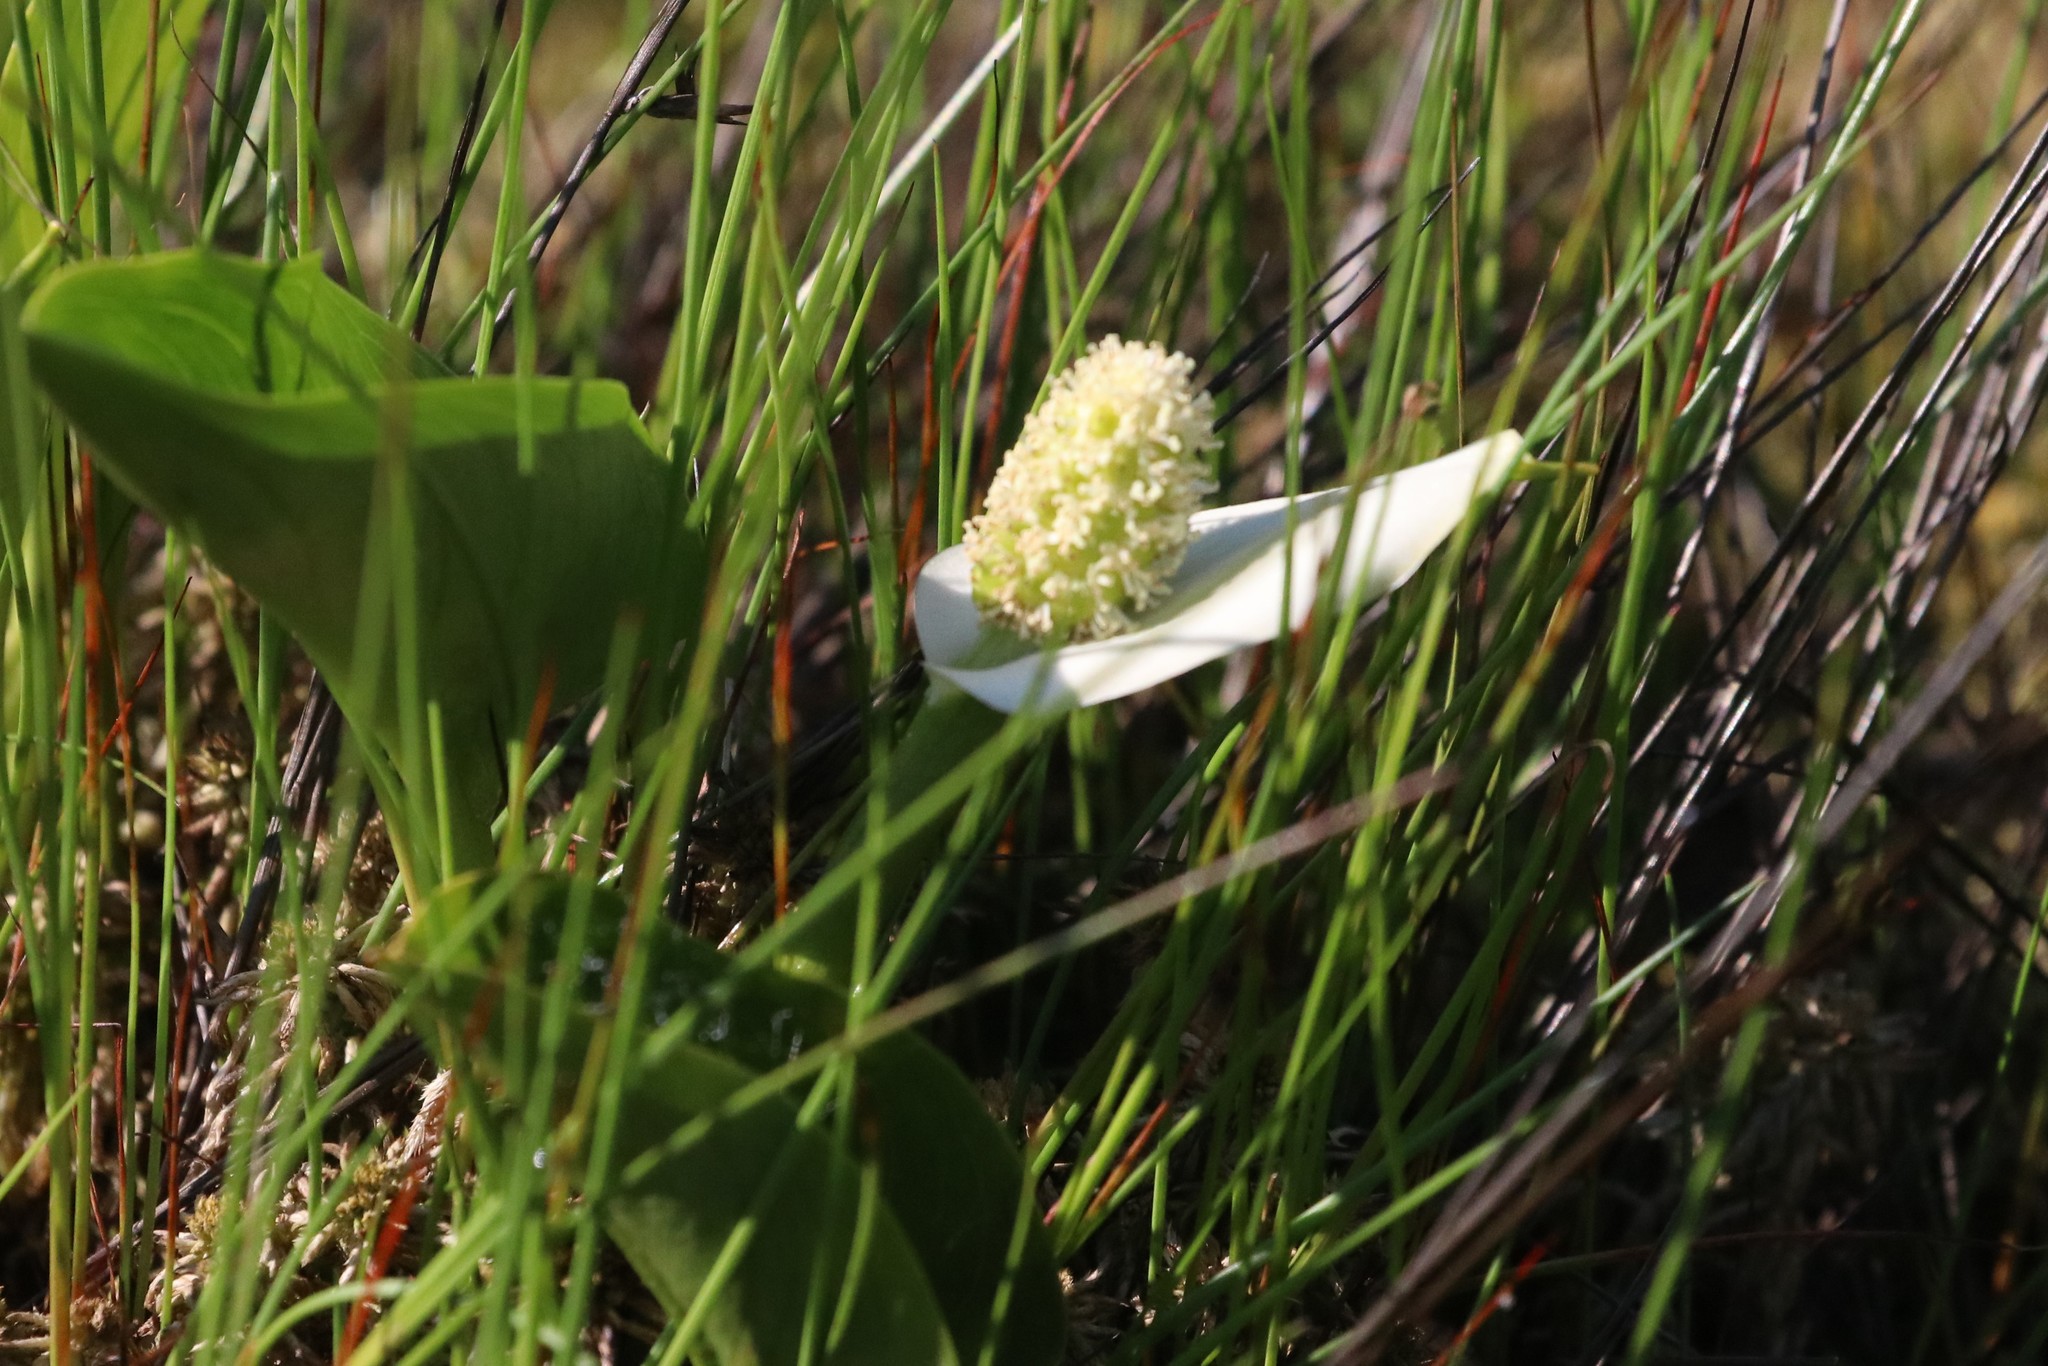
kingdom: Plantae
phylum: Tracheophyta
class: Liliopsida
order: Alismatales
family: Araceae
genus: Calla
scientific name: Calla palustris
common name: Bog arum
